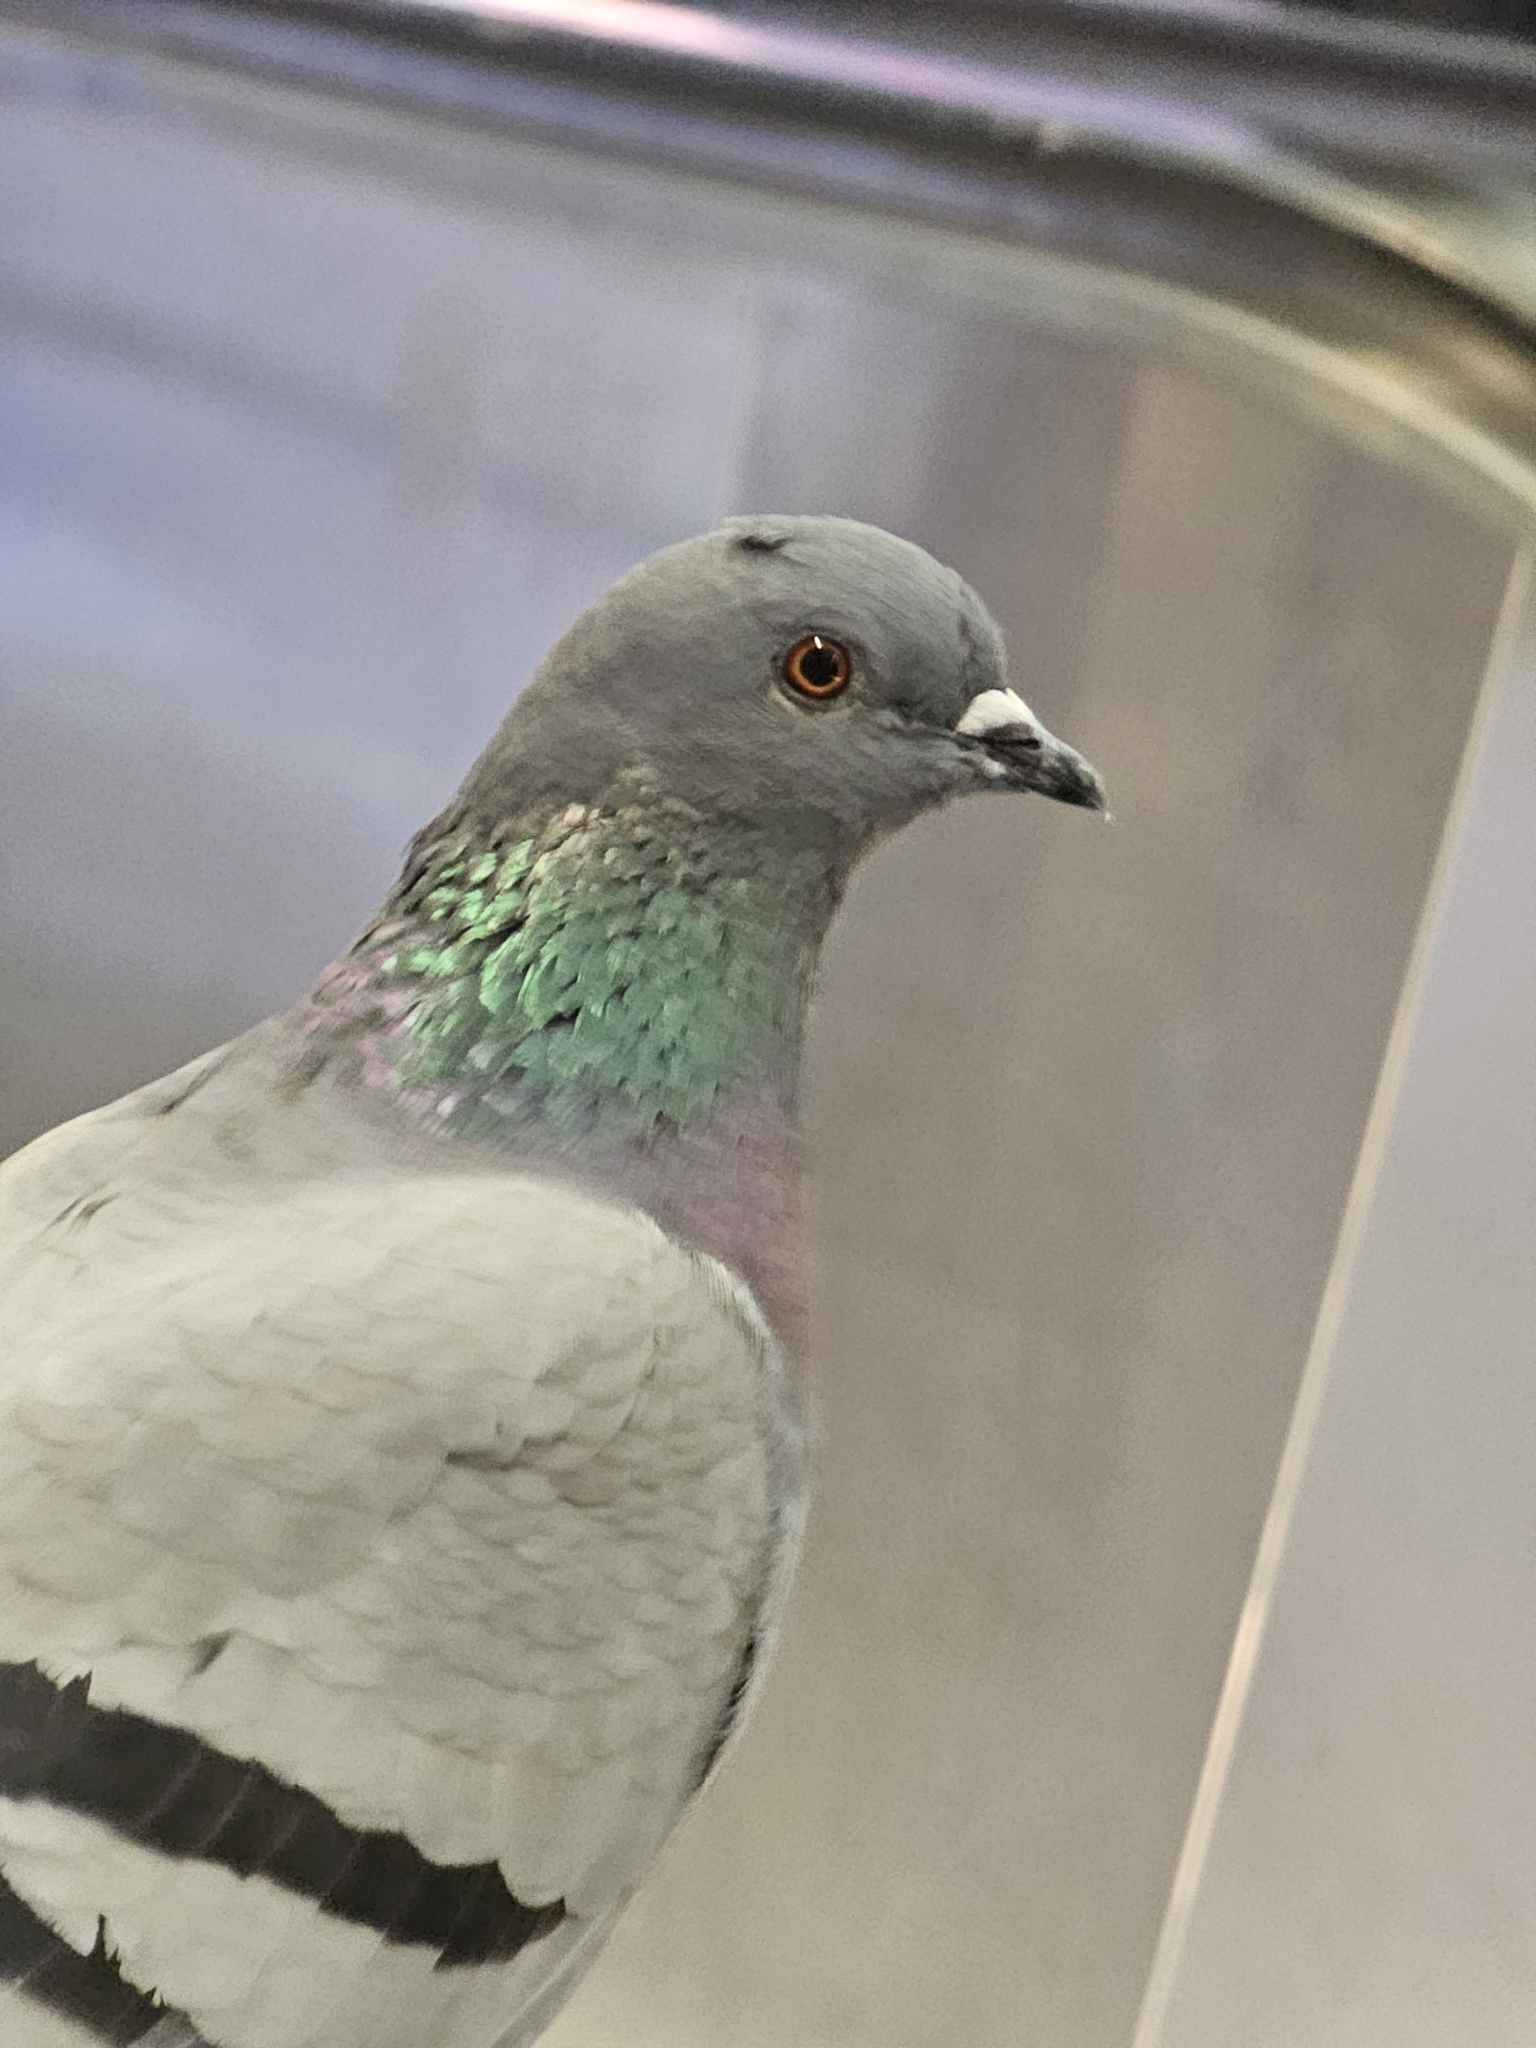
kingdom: Animalia
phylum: Chordata
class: Aves
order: Columbiformes
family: Columbidae
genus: Columba
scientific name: Columba livia
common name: Rock pigeon
